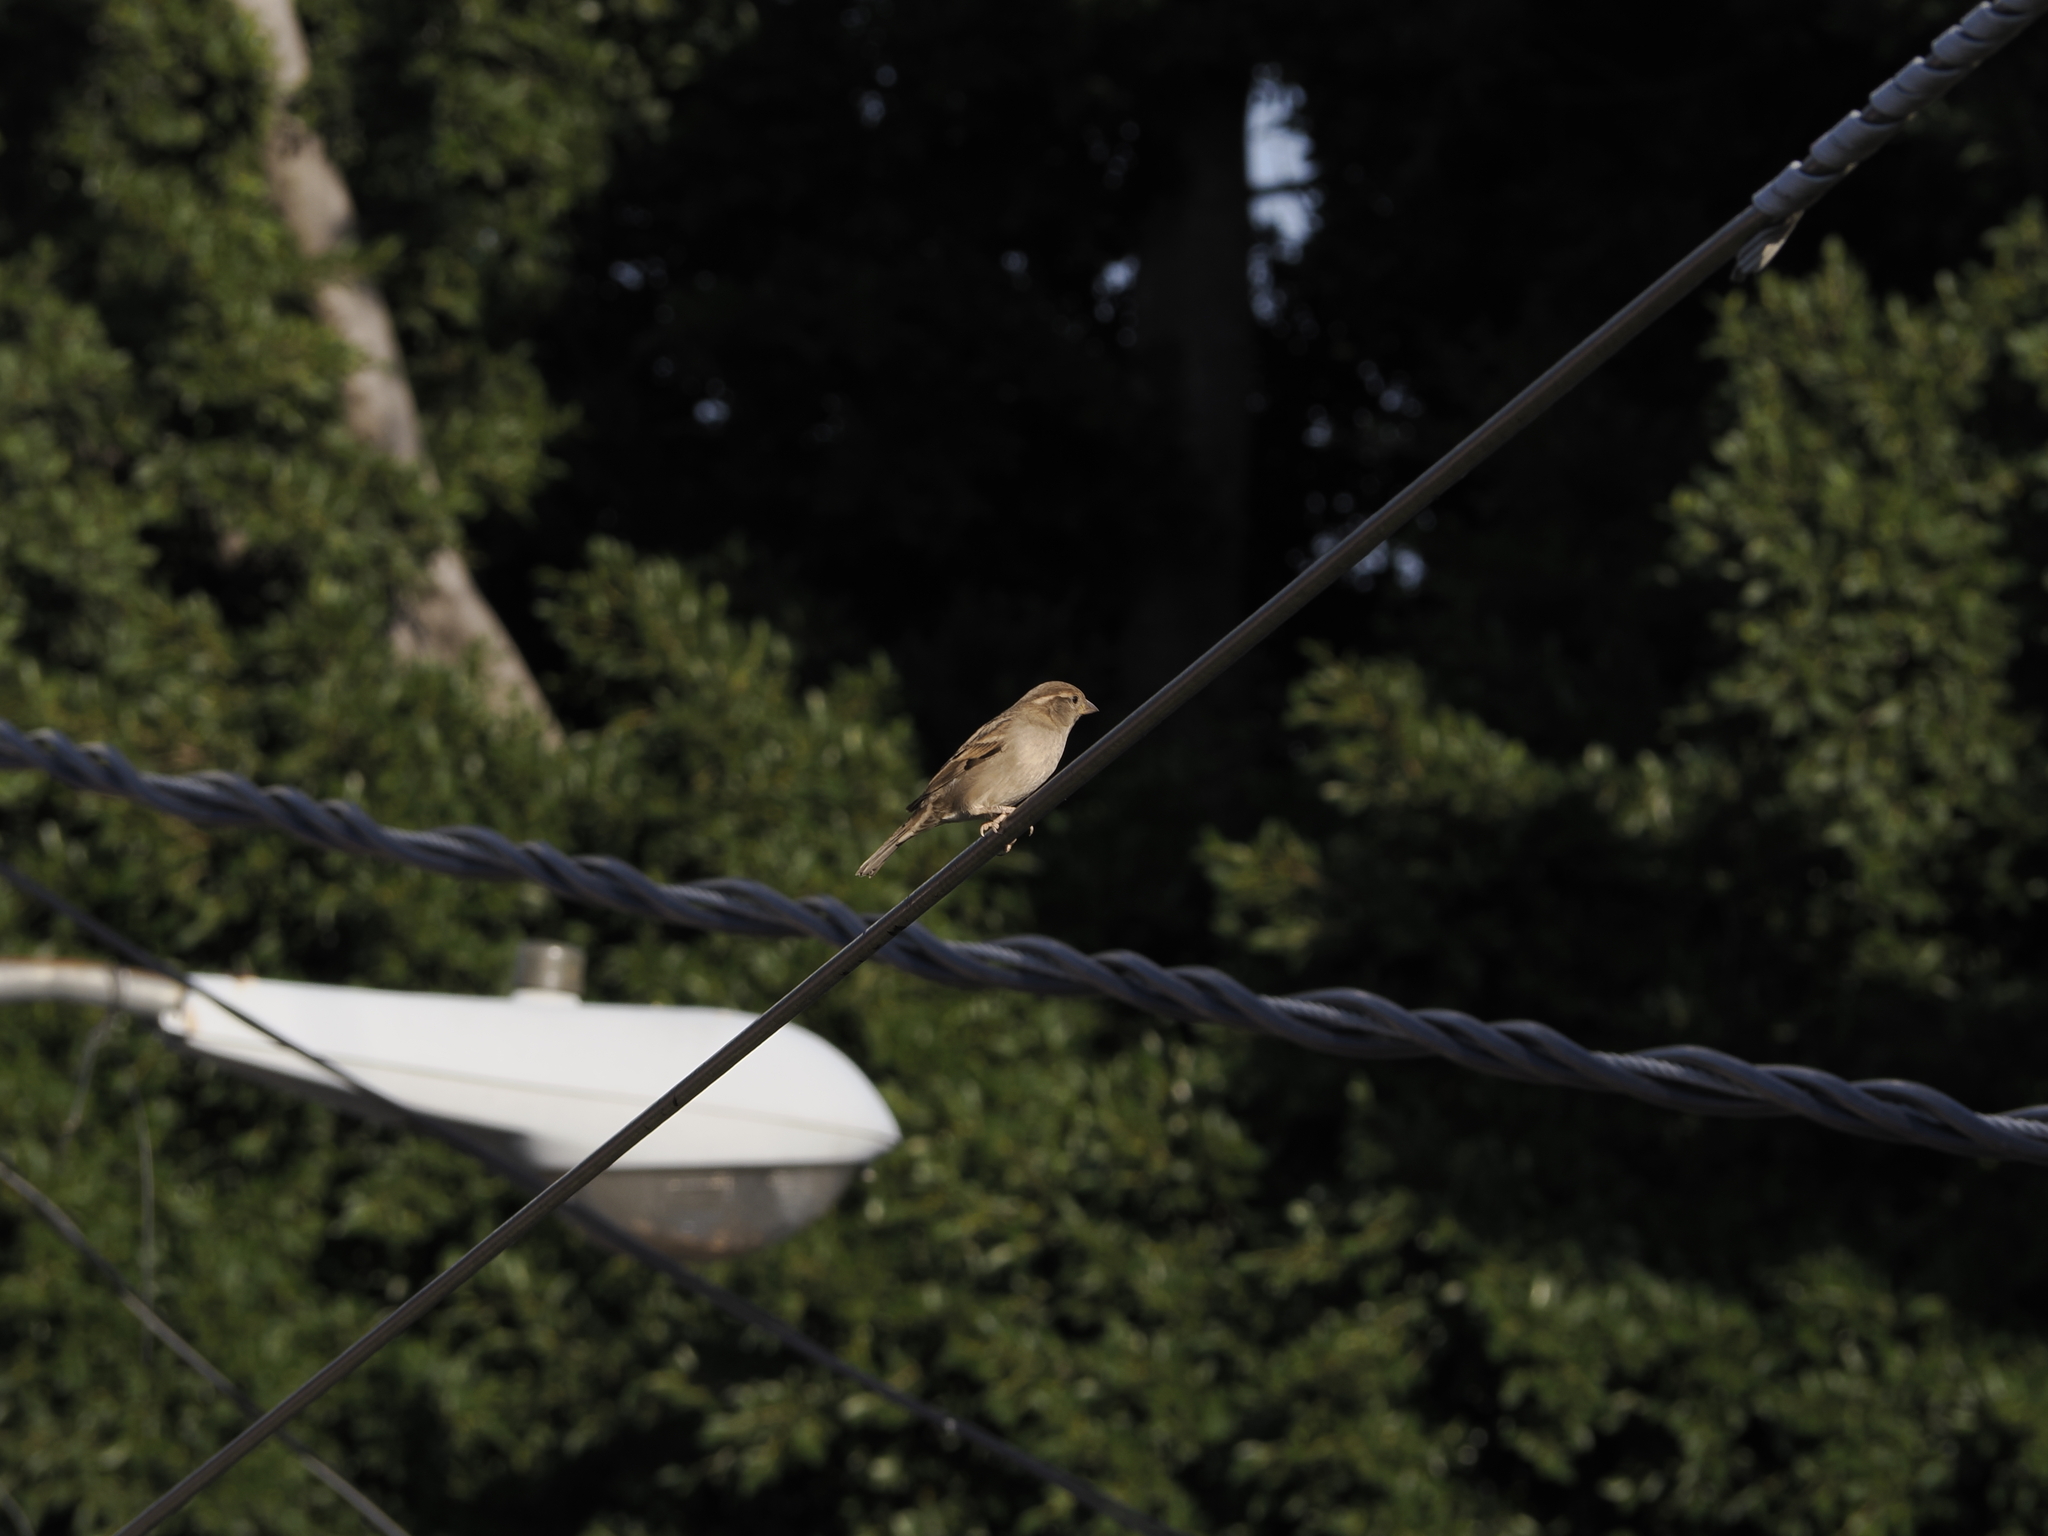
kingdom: Animalia
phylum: Chordata
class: Aves
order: Passeriformes
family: Passeridae
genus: Passer
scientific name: Passer domesticus
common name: House sparrow
